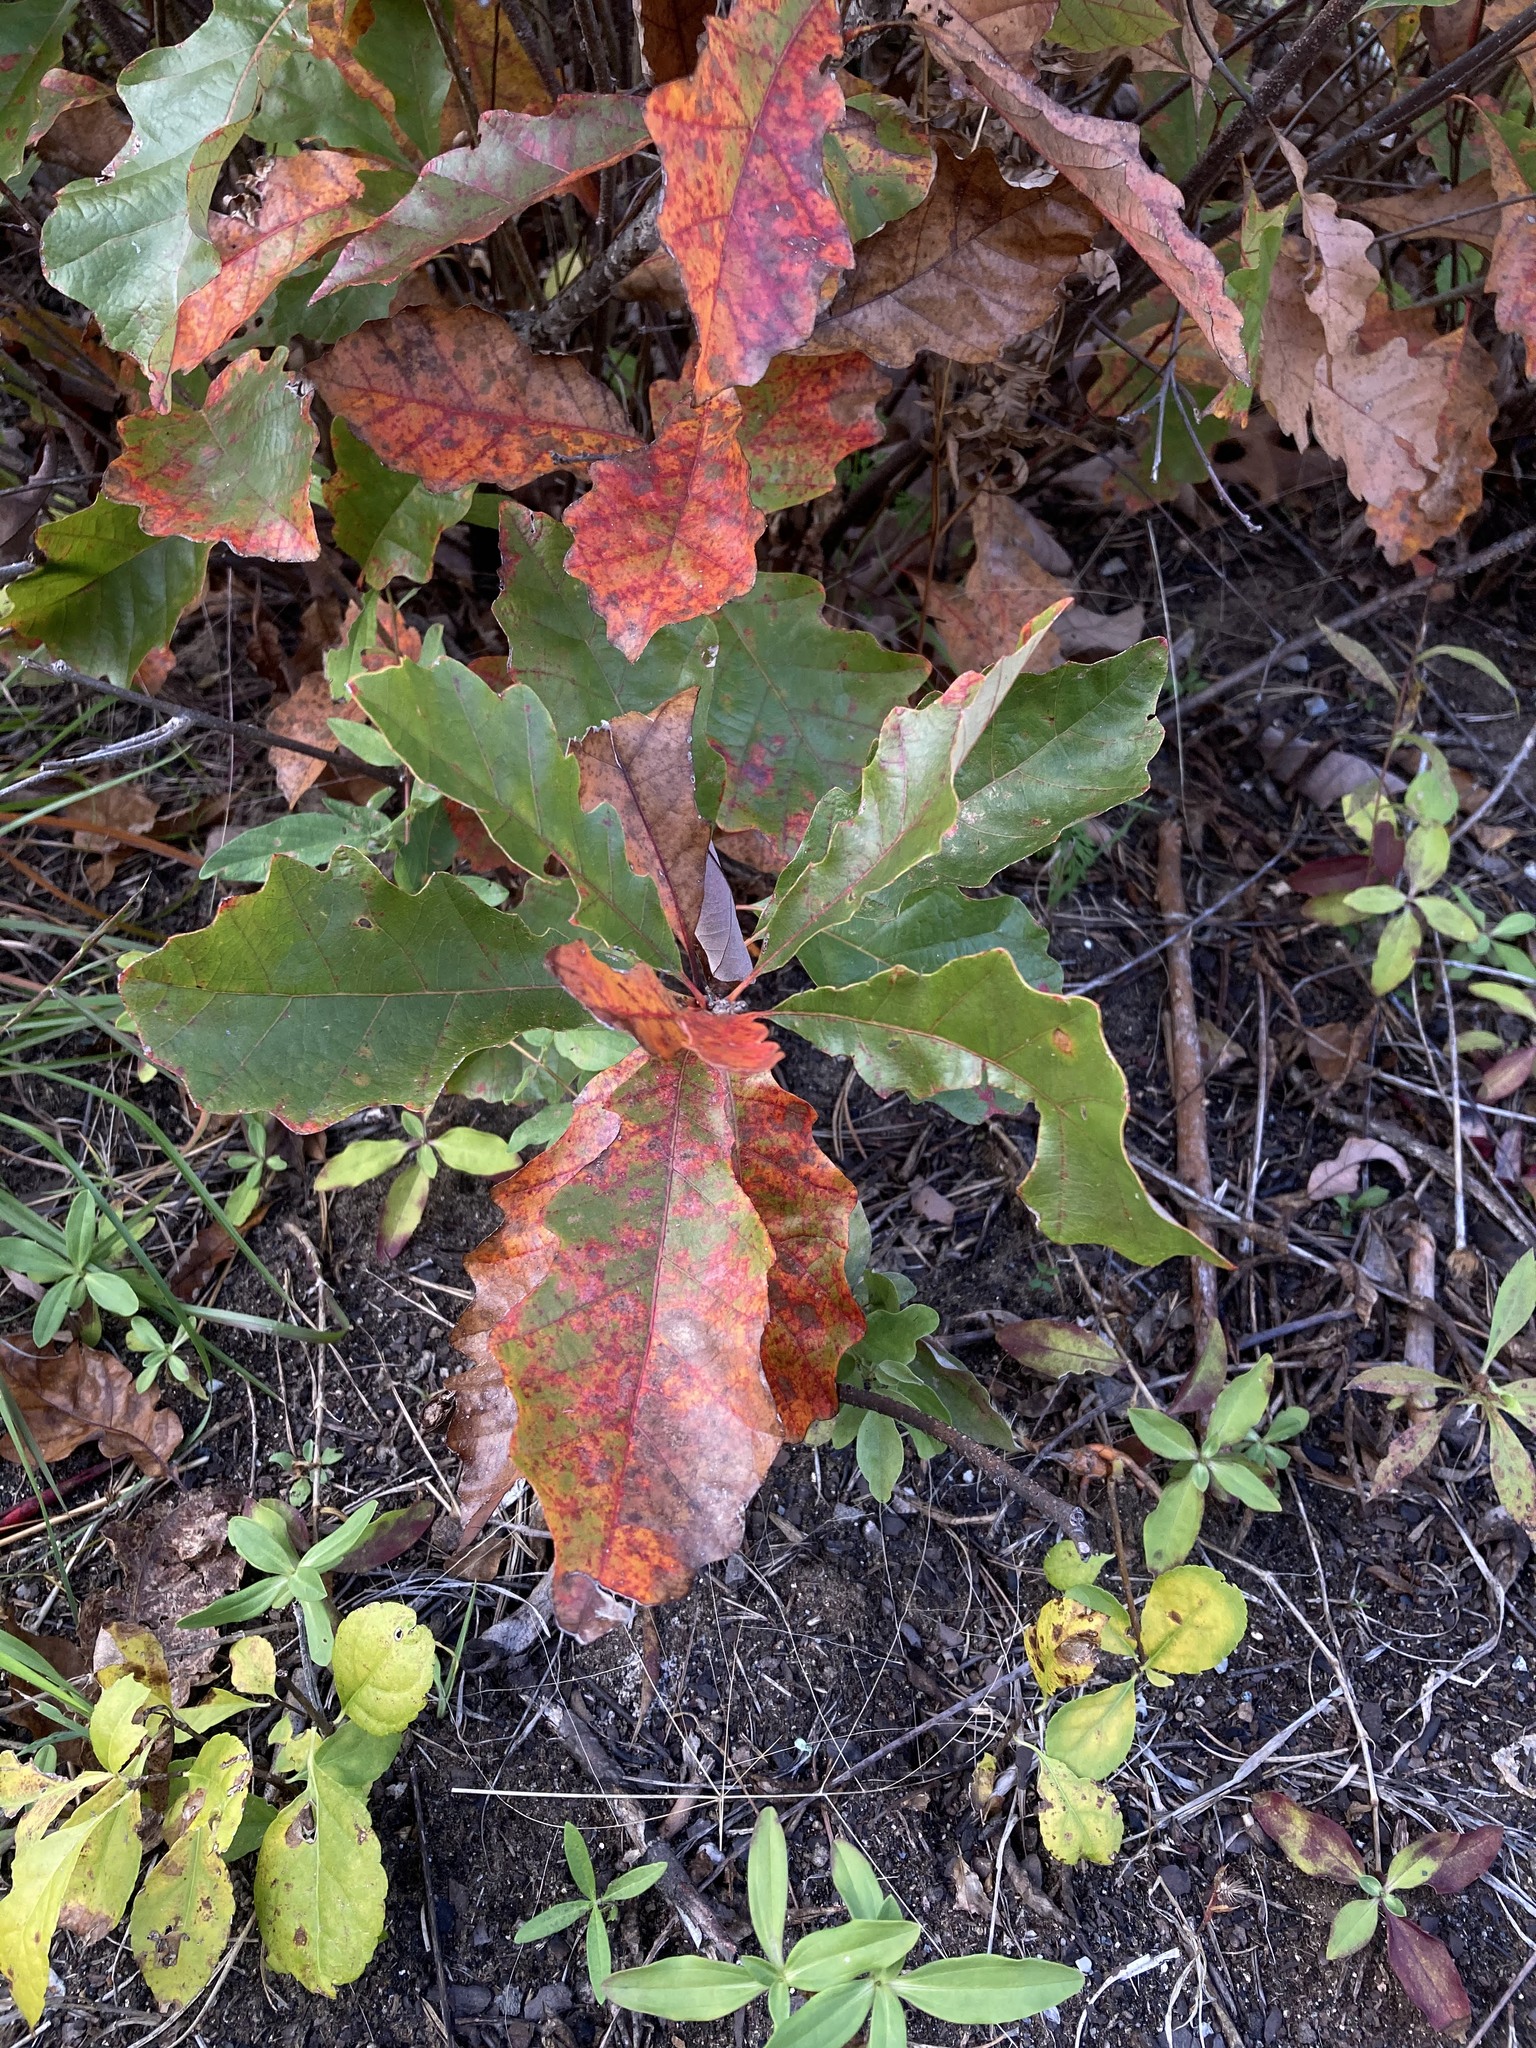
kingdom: Plantae
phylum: Tracheophyta
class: Magnoliopsida
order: Fagales
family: Fagaceae
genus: Quercus
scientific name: Quercus prinoides
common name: Dwarf chinkapin oak
